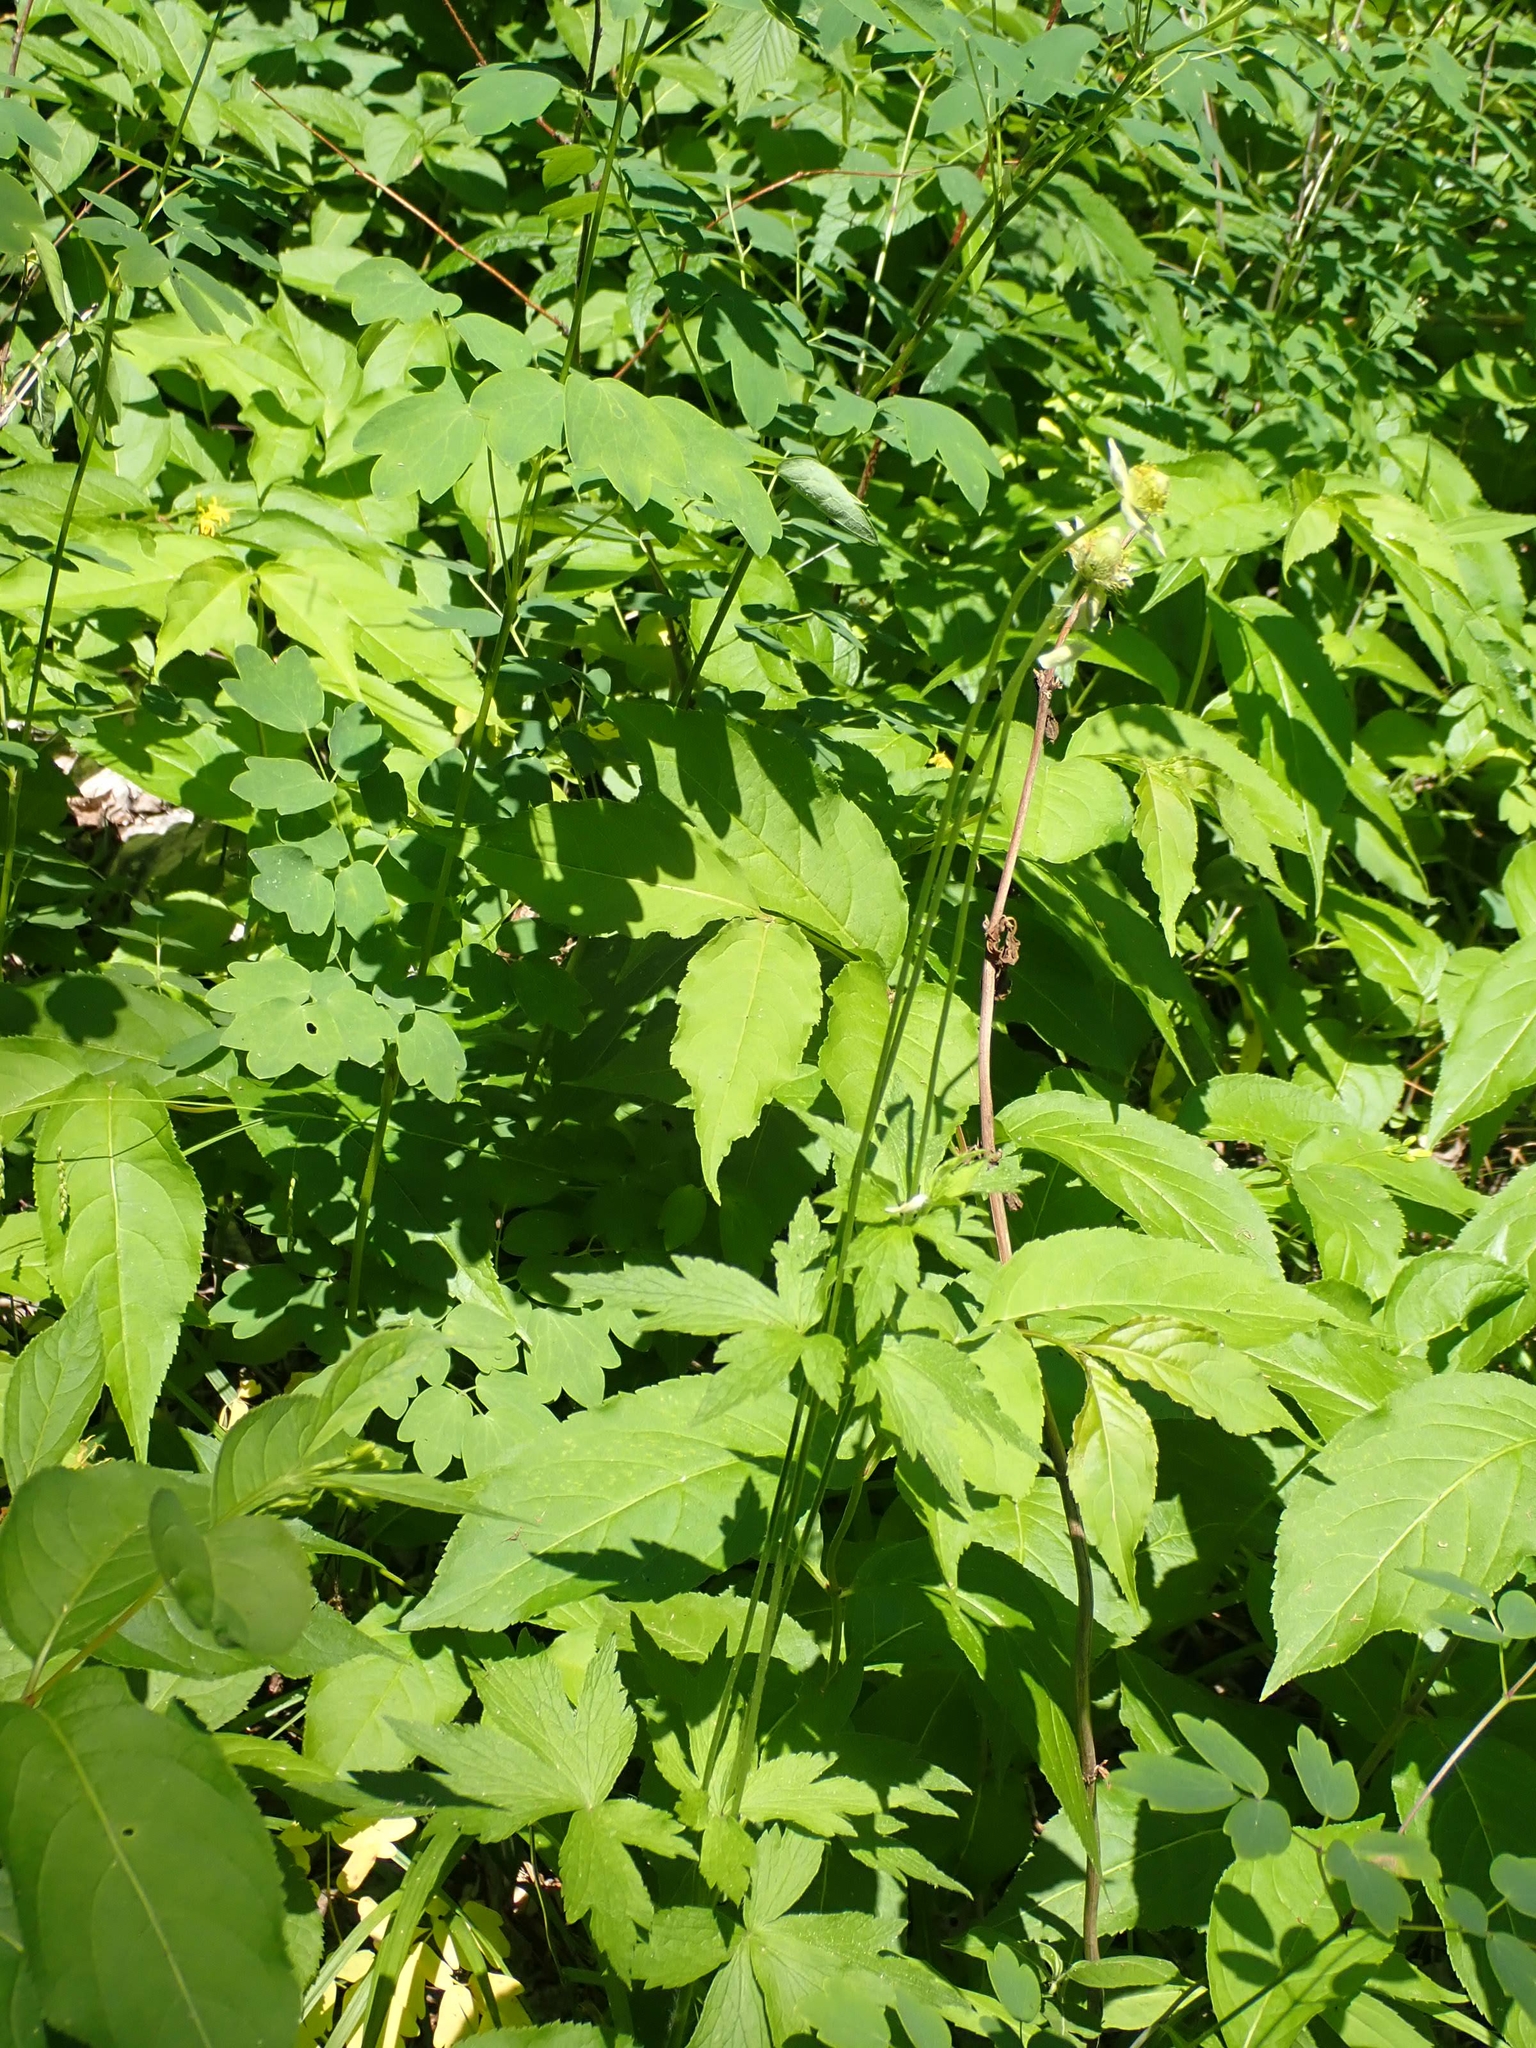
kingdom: Plantae
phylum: Tracheophyta
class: Magnoliopsida
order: Ranunculales
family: Ranunculaceae
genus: Anemone
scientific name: Anemone virginiana
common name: Tall anemone
